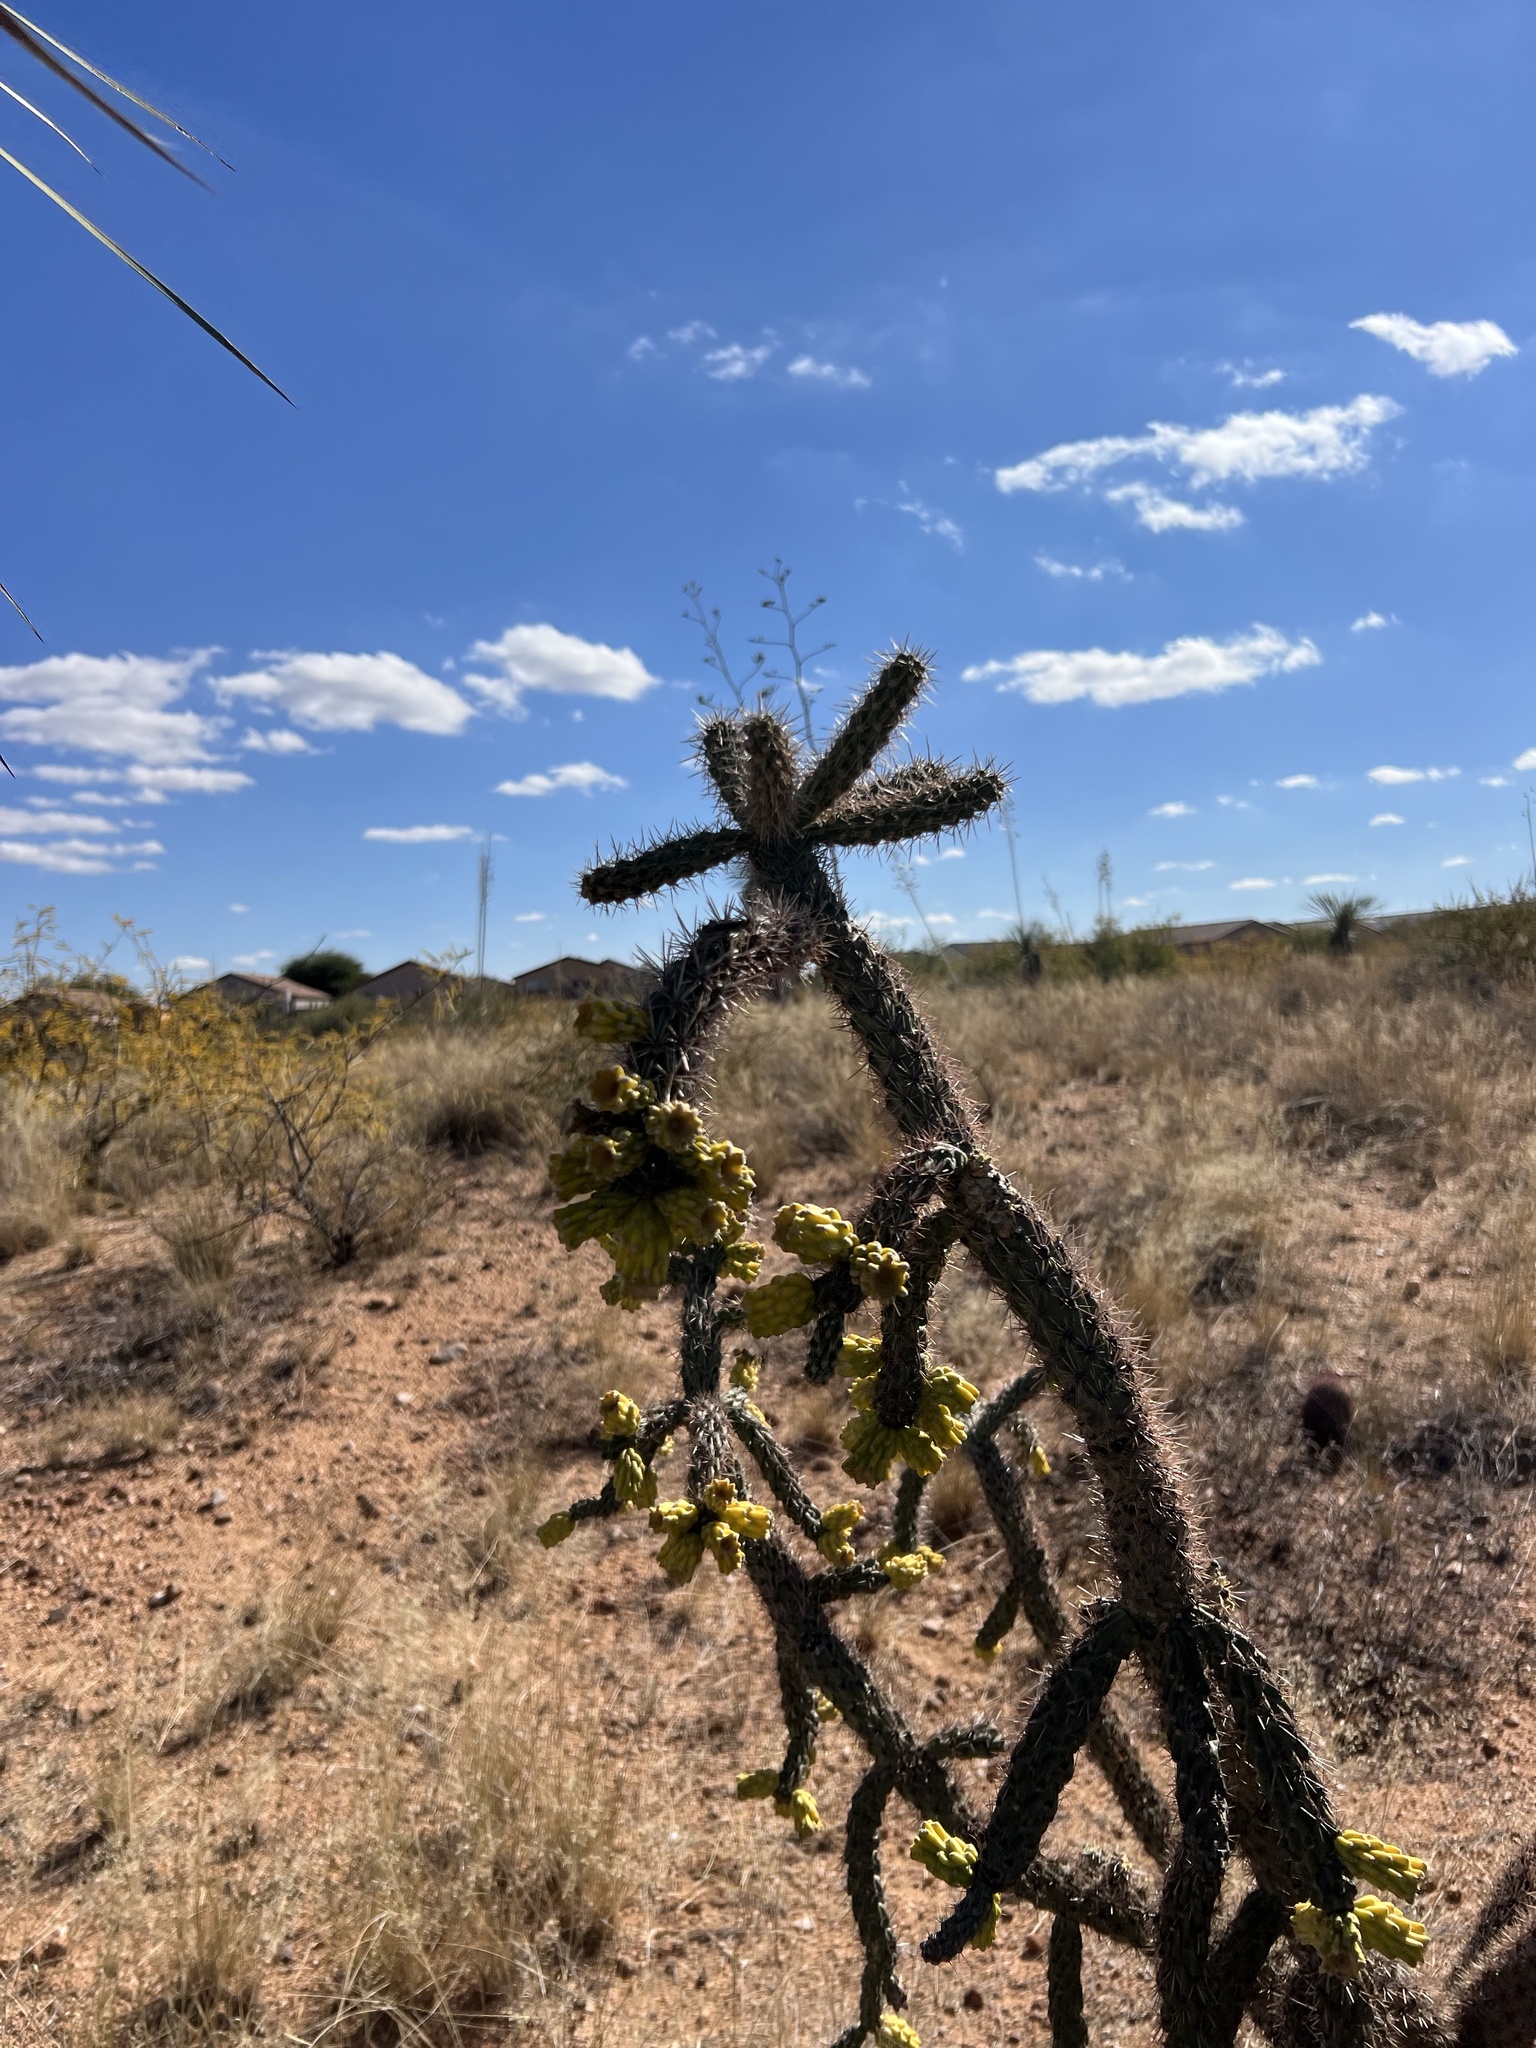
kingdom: Plantae
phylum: Tracheophyta
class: Magnoliopsida
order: Caryophyllales
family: Cactaceae
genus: Cylindropuntia
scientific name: Cylindropuntia imbricata
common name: Candelabrum cactus
